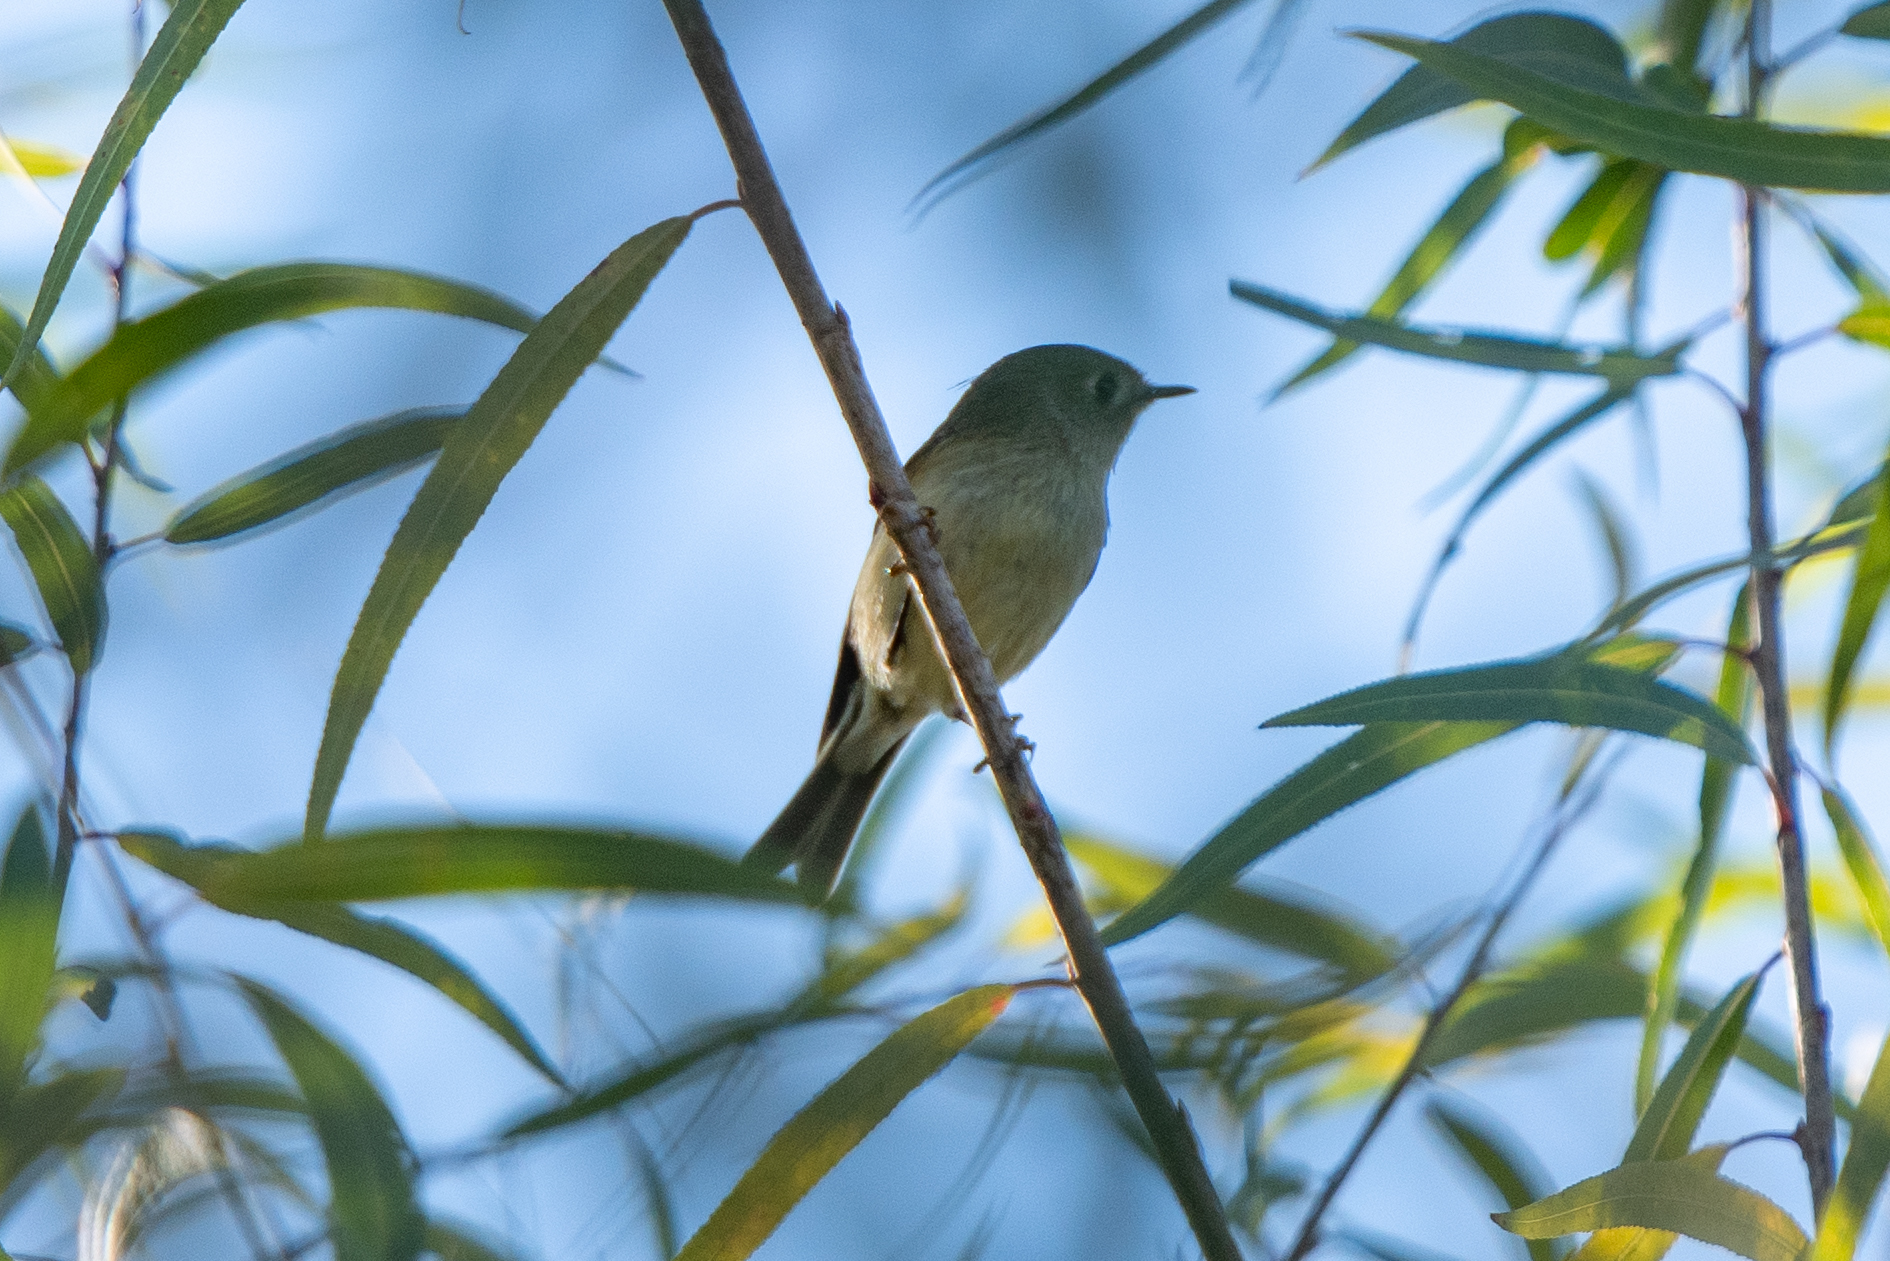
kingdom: Animalia
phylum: Chordata
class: Aves
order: Passeriformes
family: Regulidae
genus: Regulus
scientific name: Regulus calendula
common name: Ruby-crowned kinglet
